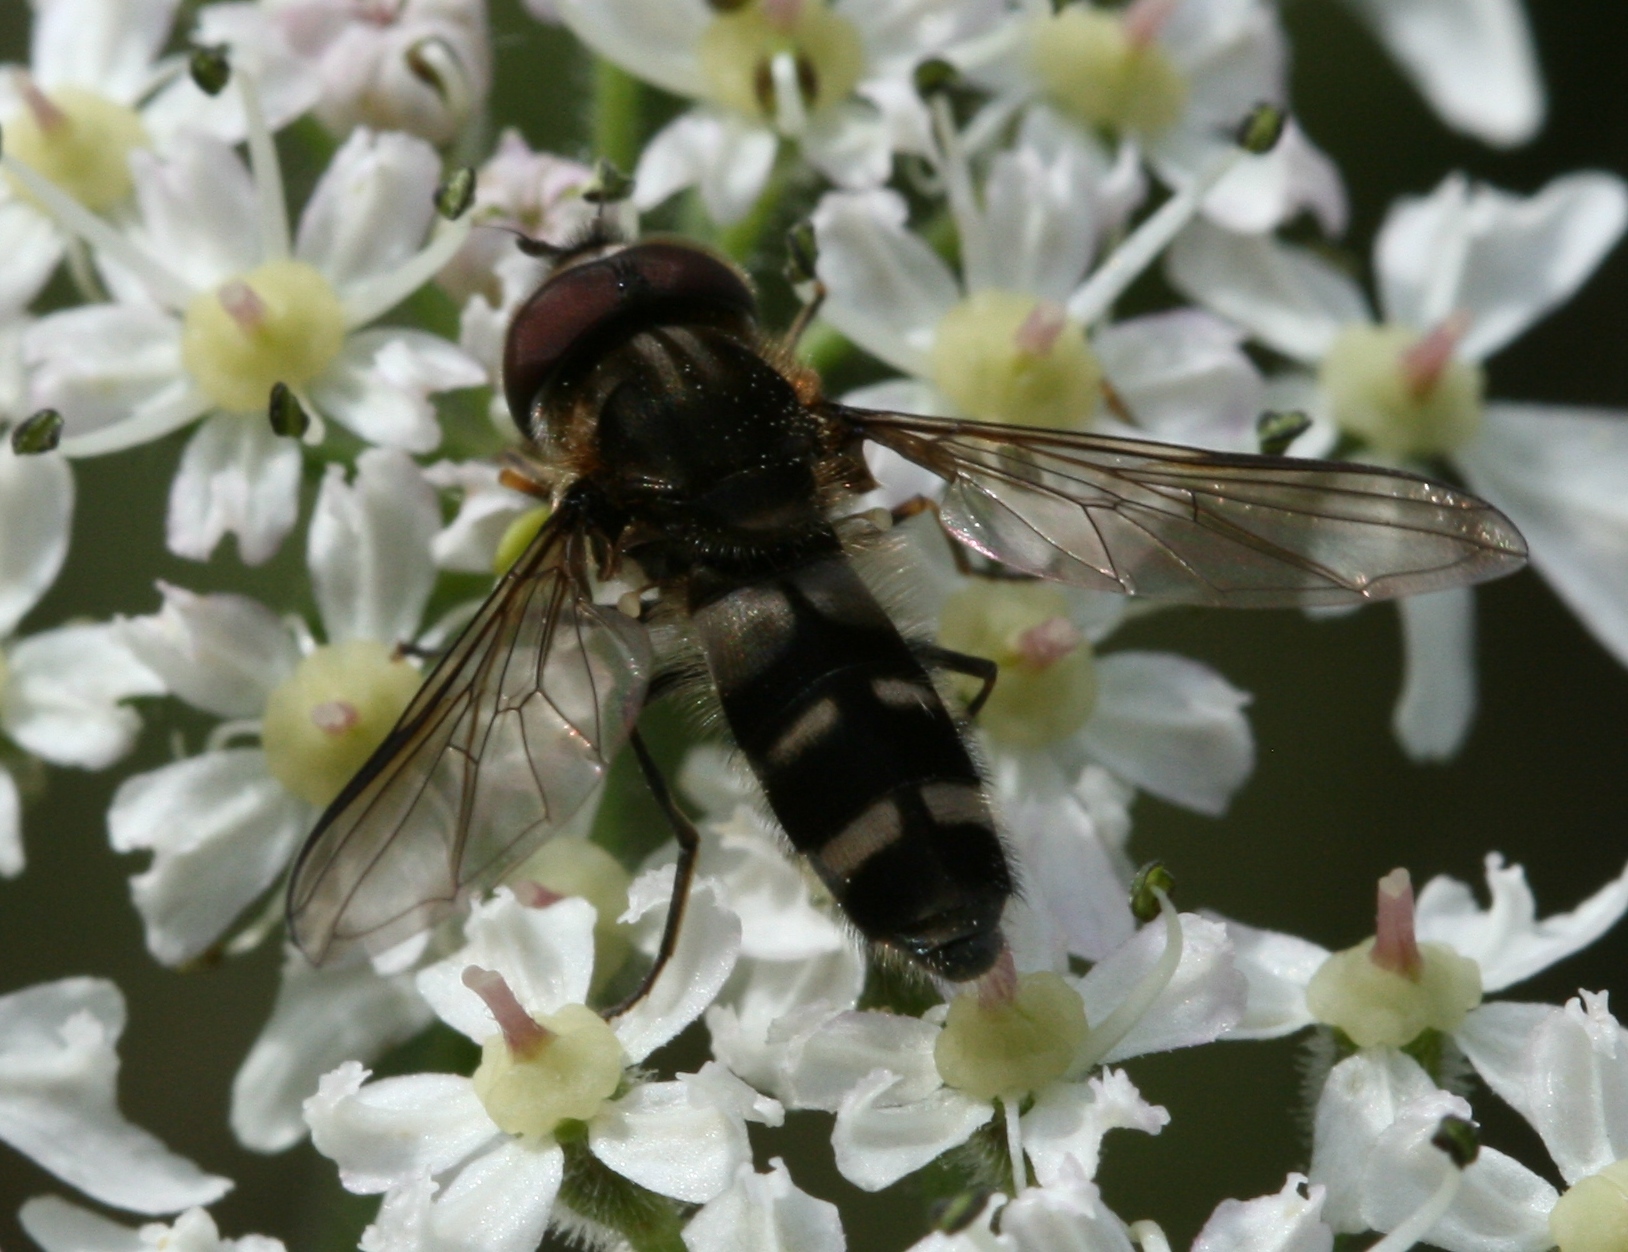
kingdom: Animalia
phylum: Arthropoda
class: Insecta
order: Diptera
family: Syrphidae
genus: Leucozona
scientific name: Leucozona laternaria
